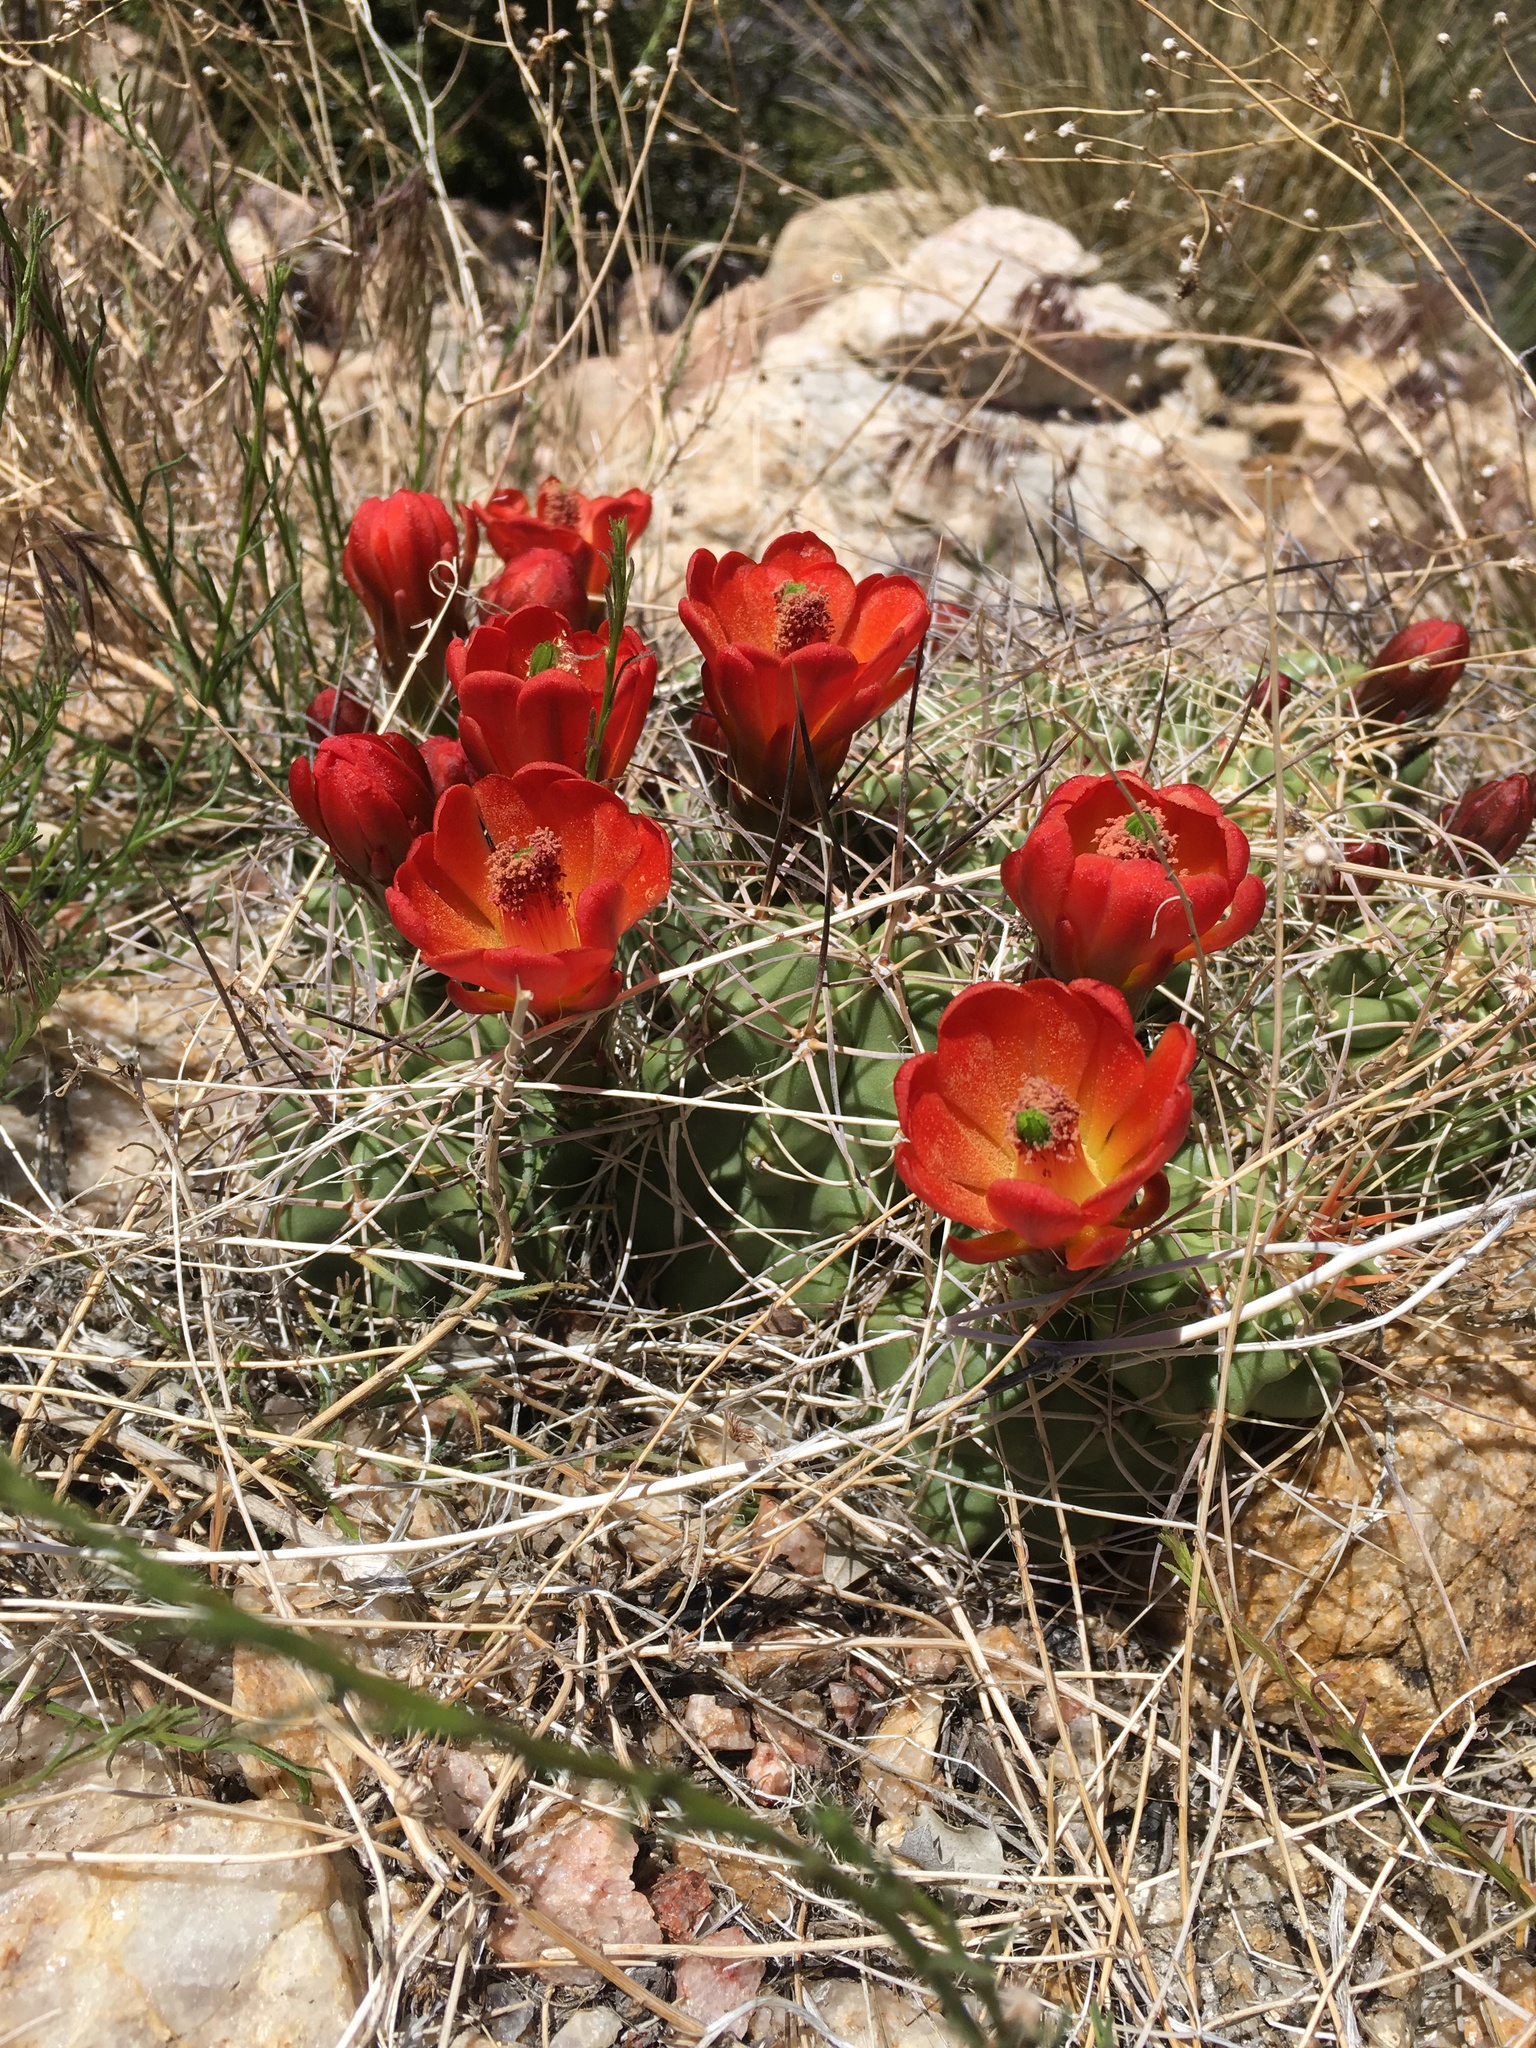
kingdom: Plantae
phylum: Tracheophyta
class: Magnoliopsida
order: Caryophyllales
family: Cactaceae
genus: Echinocereus
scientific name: Echinocereus triglochidiatus
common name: Claretcup hedgehog
